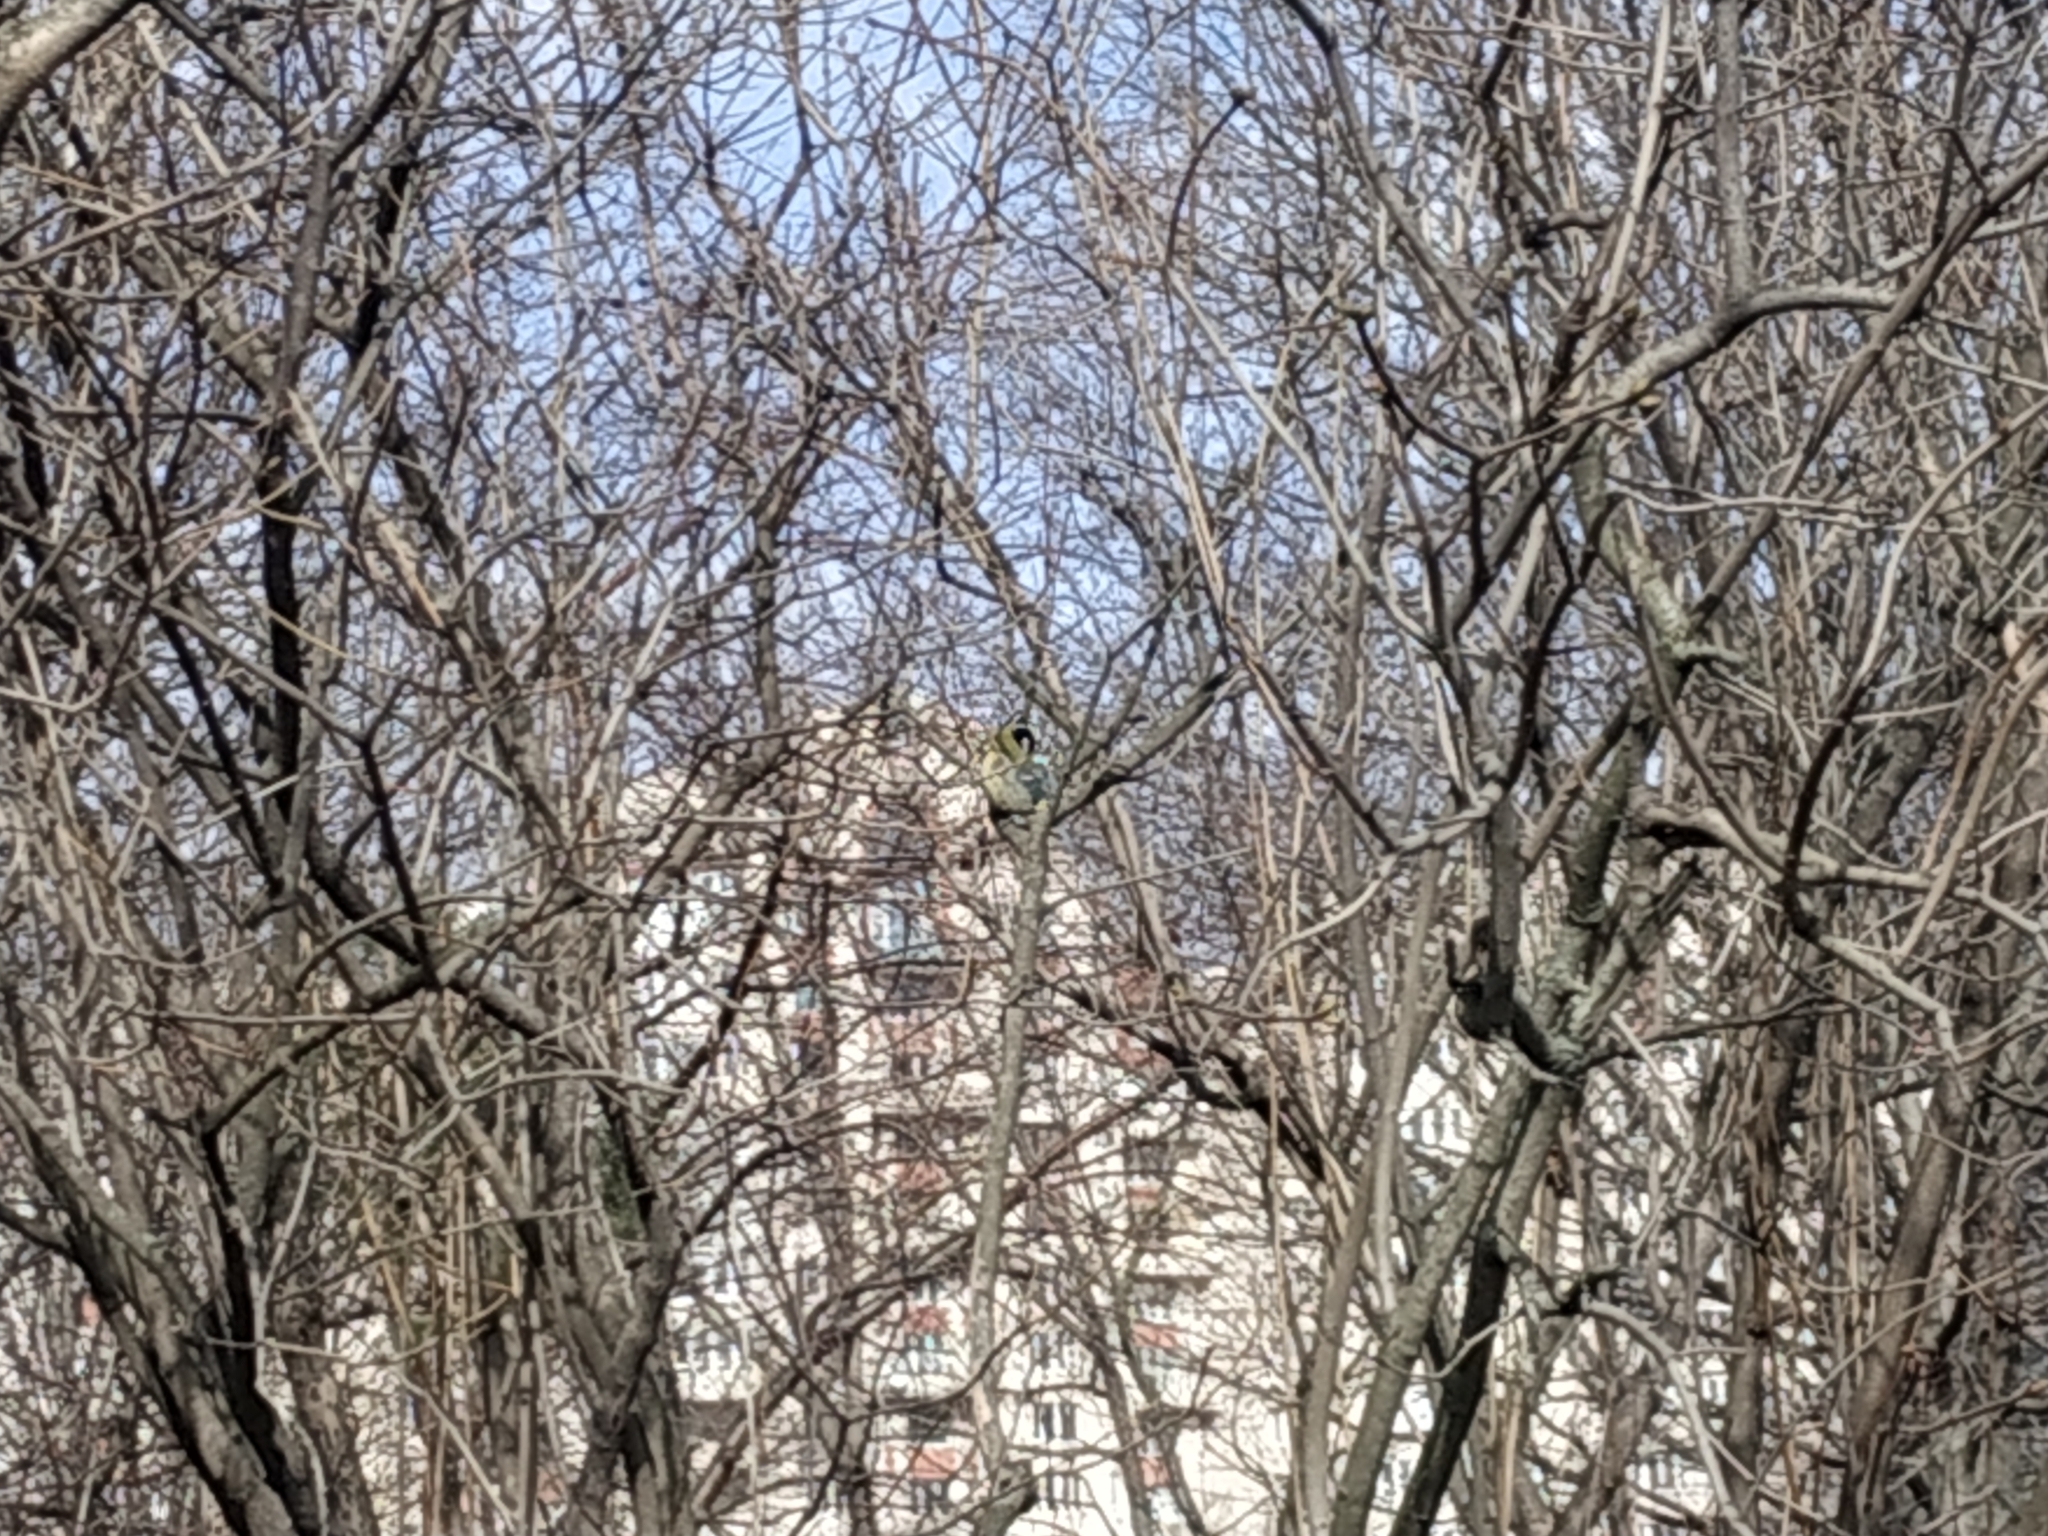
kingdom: Animalia
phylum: Chordata
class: Aves
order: Passeriformes
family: Paridae
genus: Parus
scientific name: Parus major
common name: Great tit
